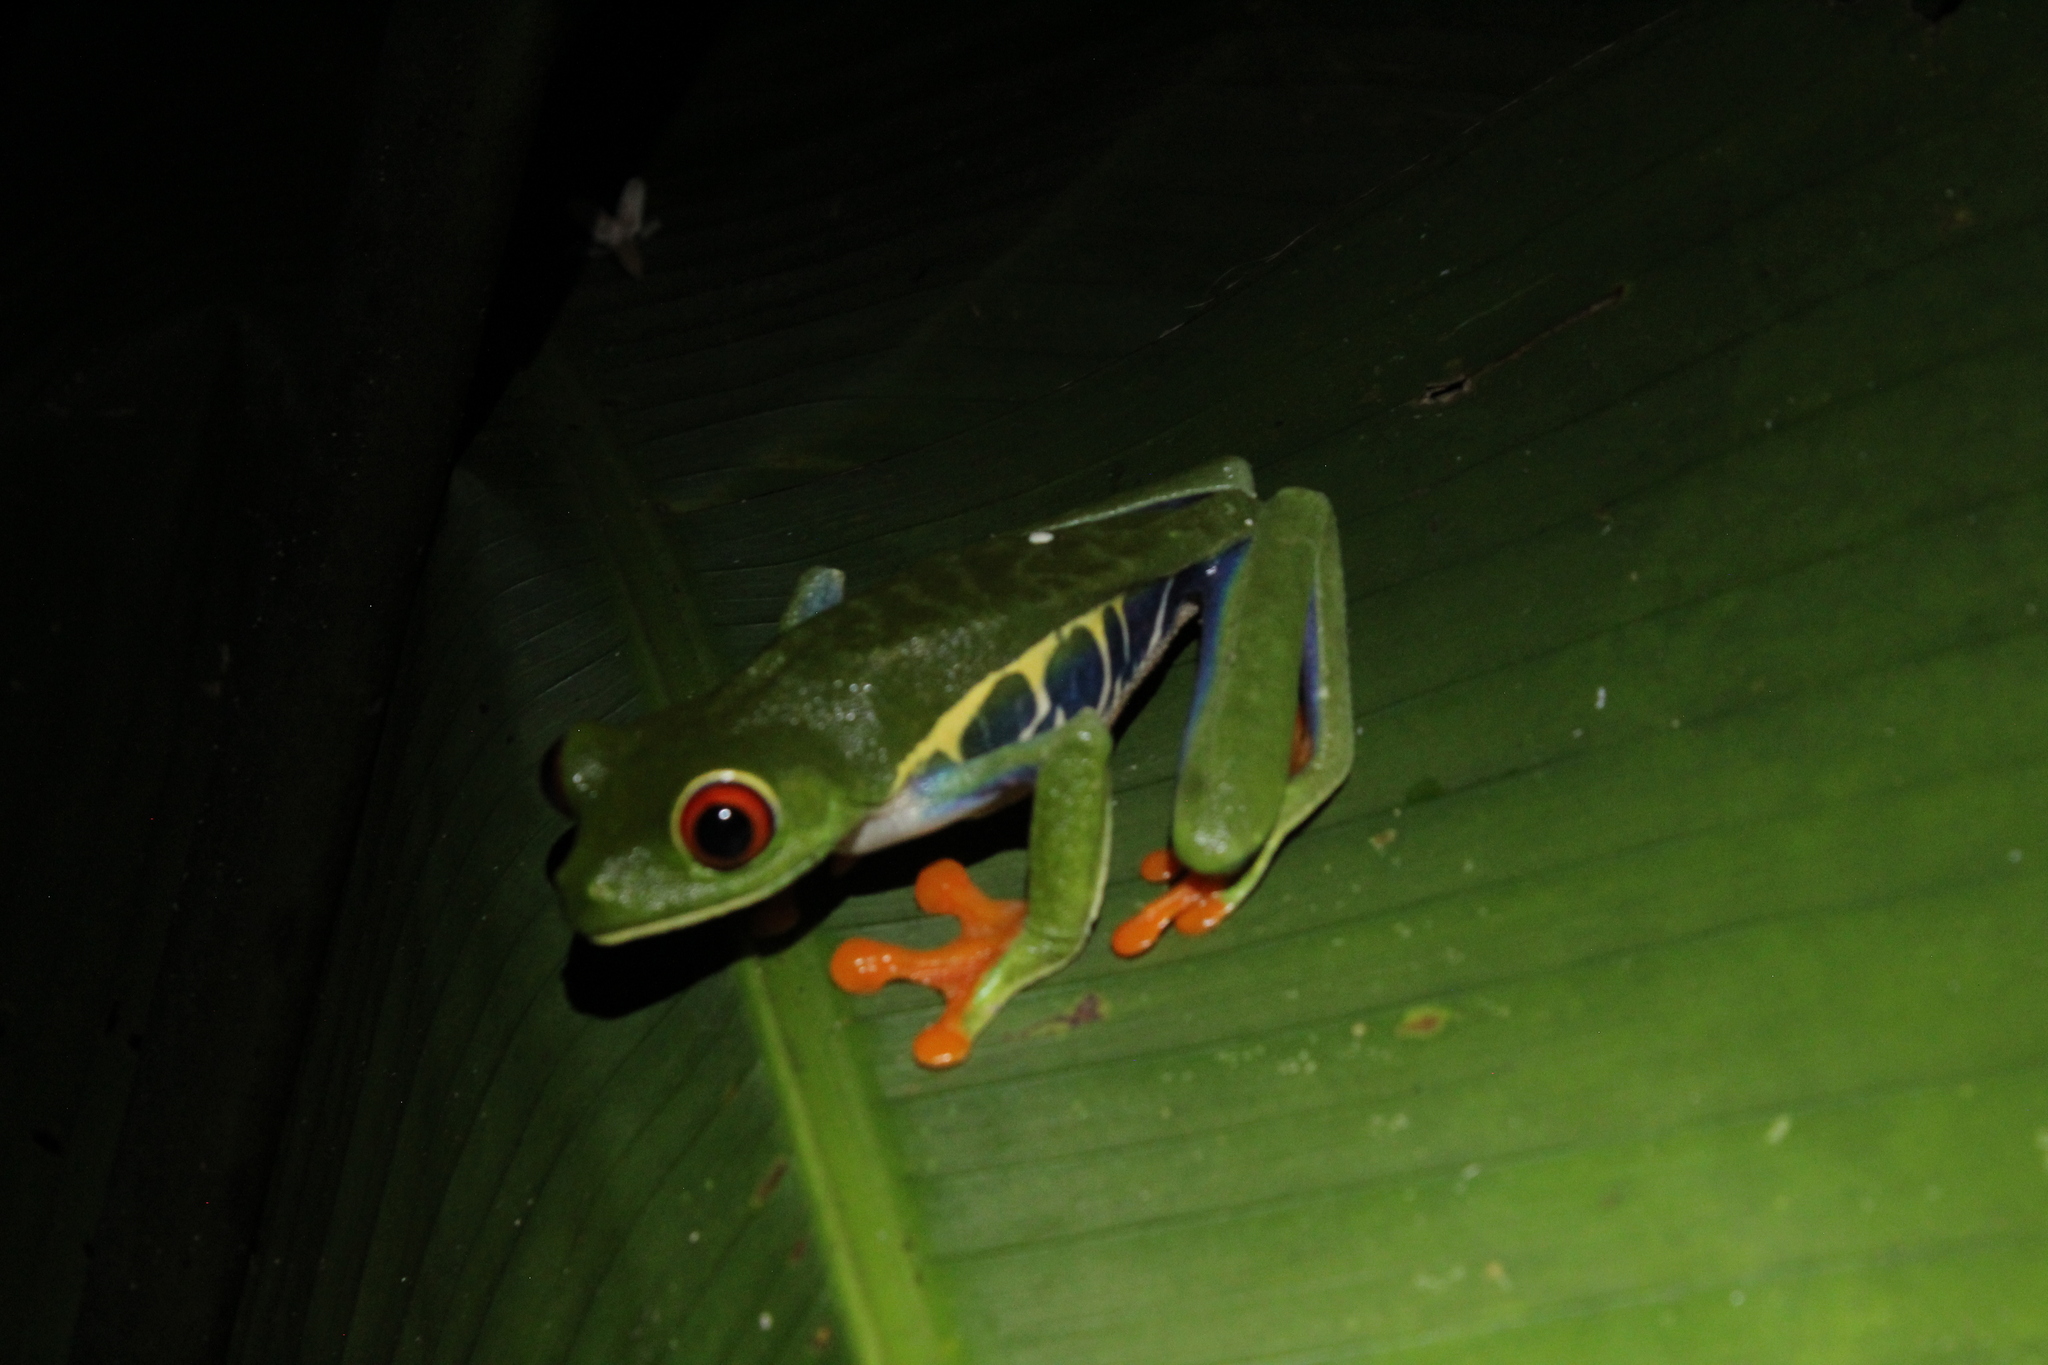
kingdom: Animalia
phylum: Chordata
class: Amphibia
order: Anura
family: Phyllomedusidae
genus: Agalychnis
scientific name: Agalychnis callidryas
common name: Red-eyed treefrog
